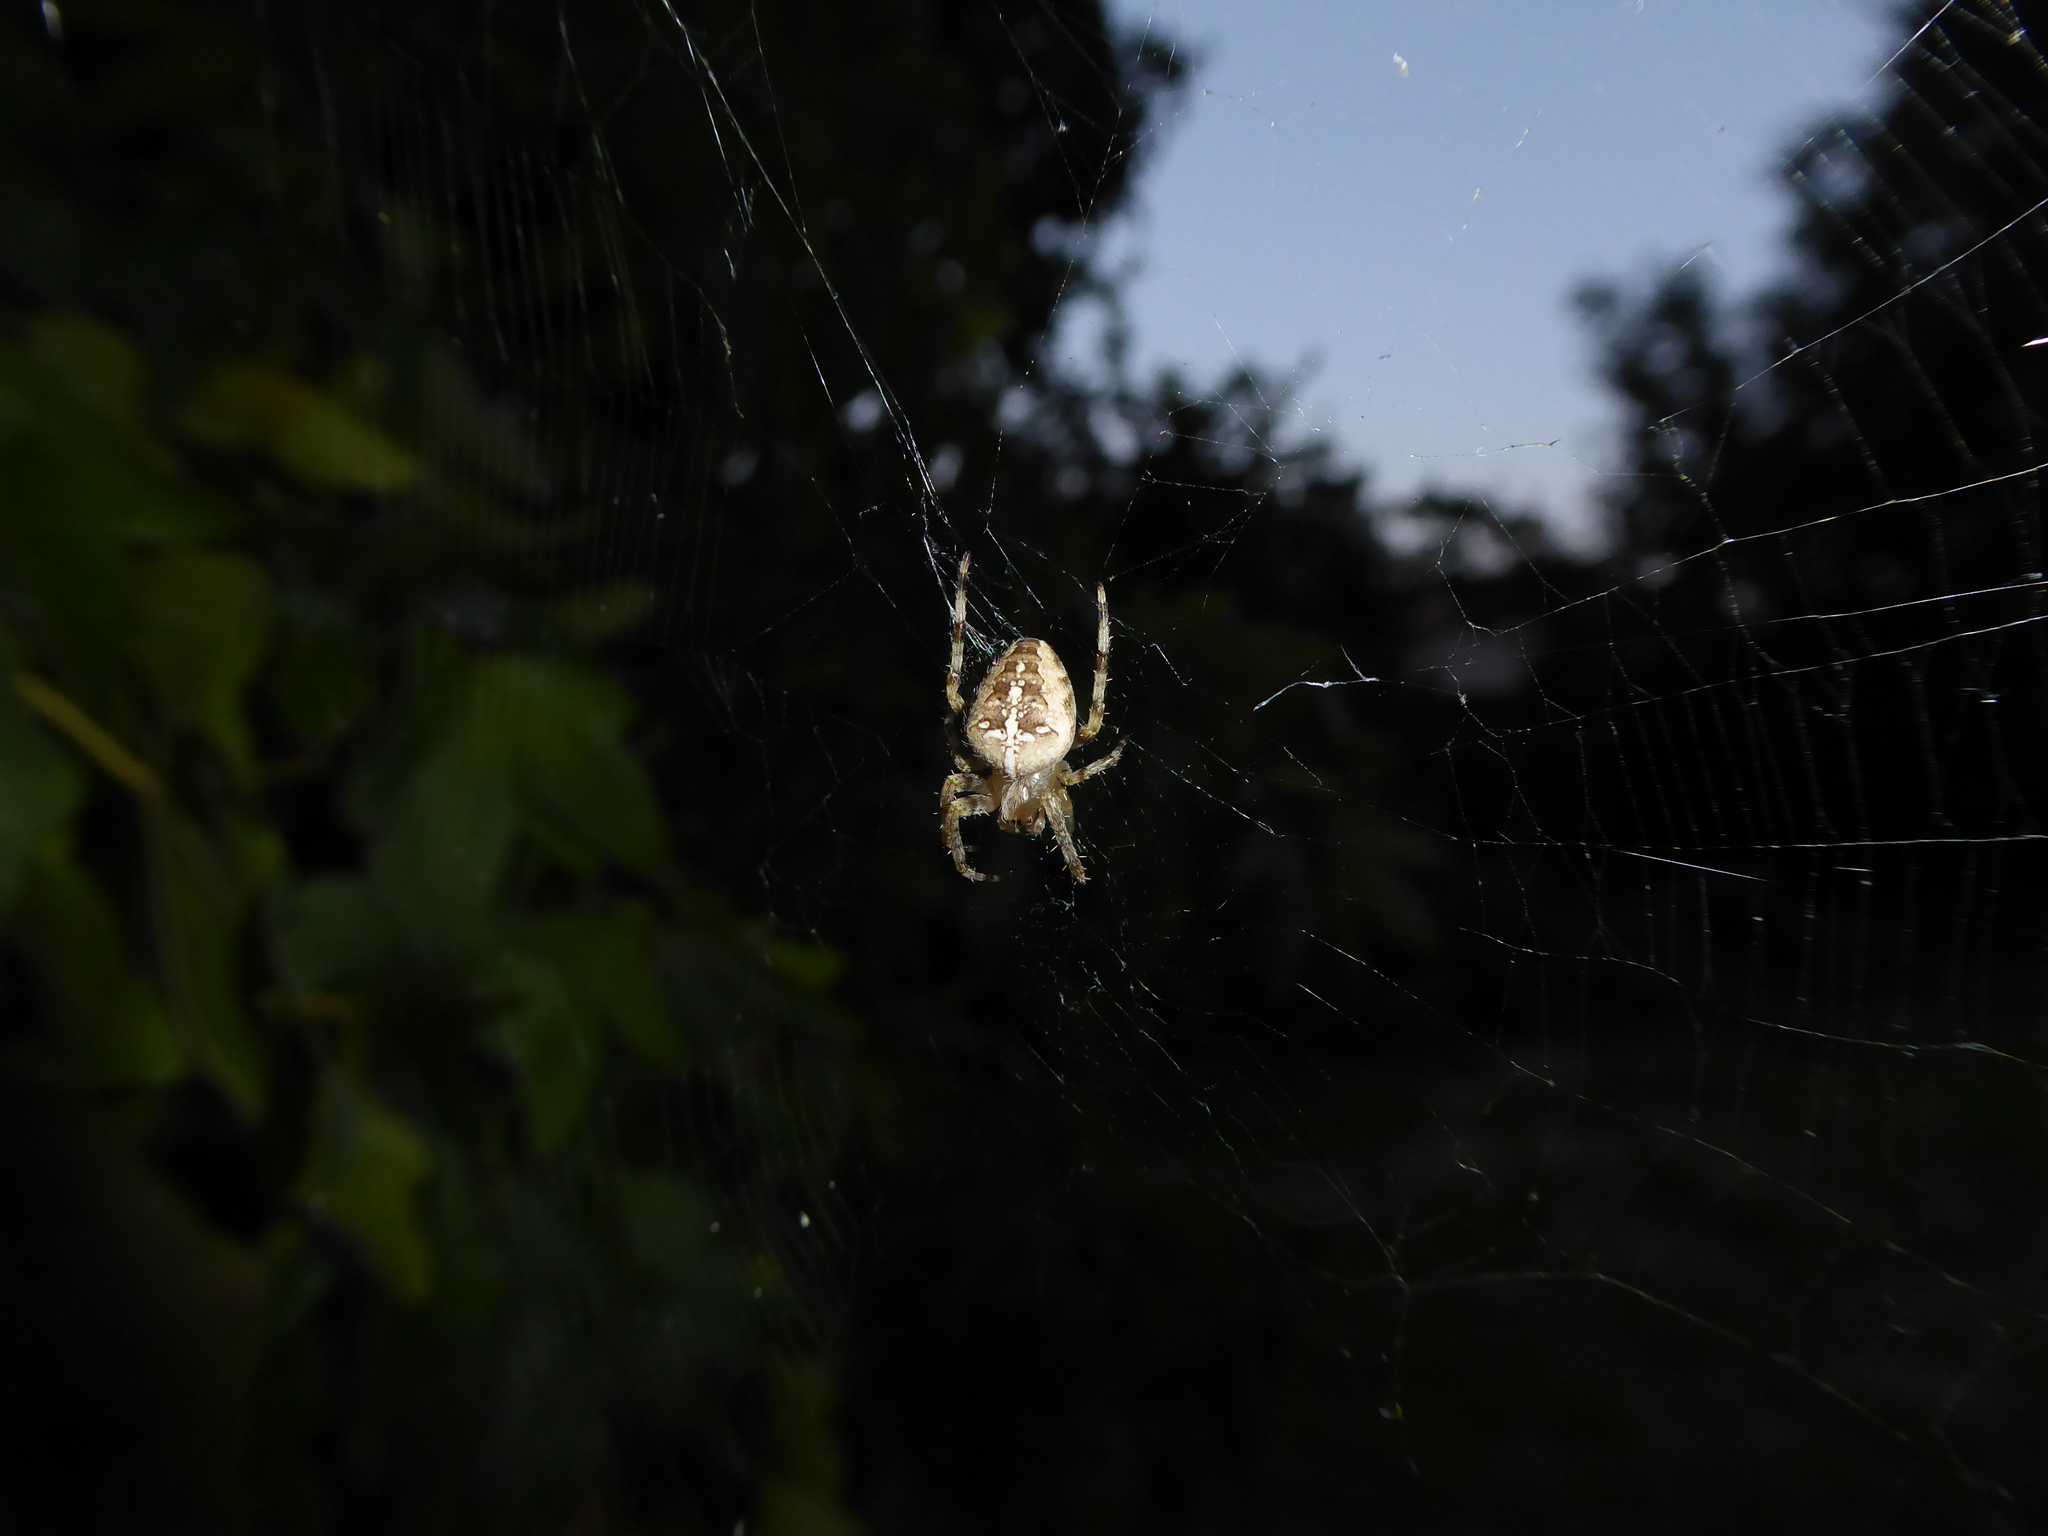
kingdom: Animalia
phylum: Arthropoda
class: Arachnida
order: Araneae
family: Araneidae
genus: Araneus
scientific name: Araneus diadematus
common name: Cross orbweaver
